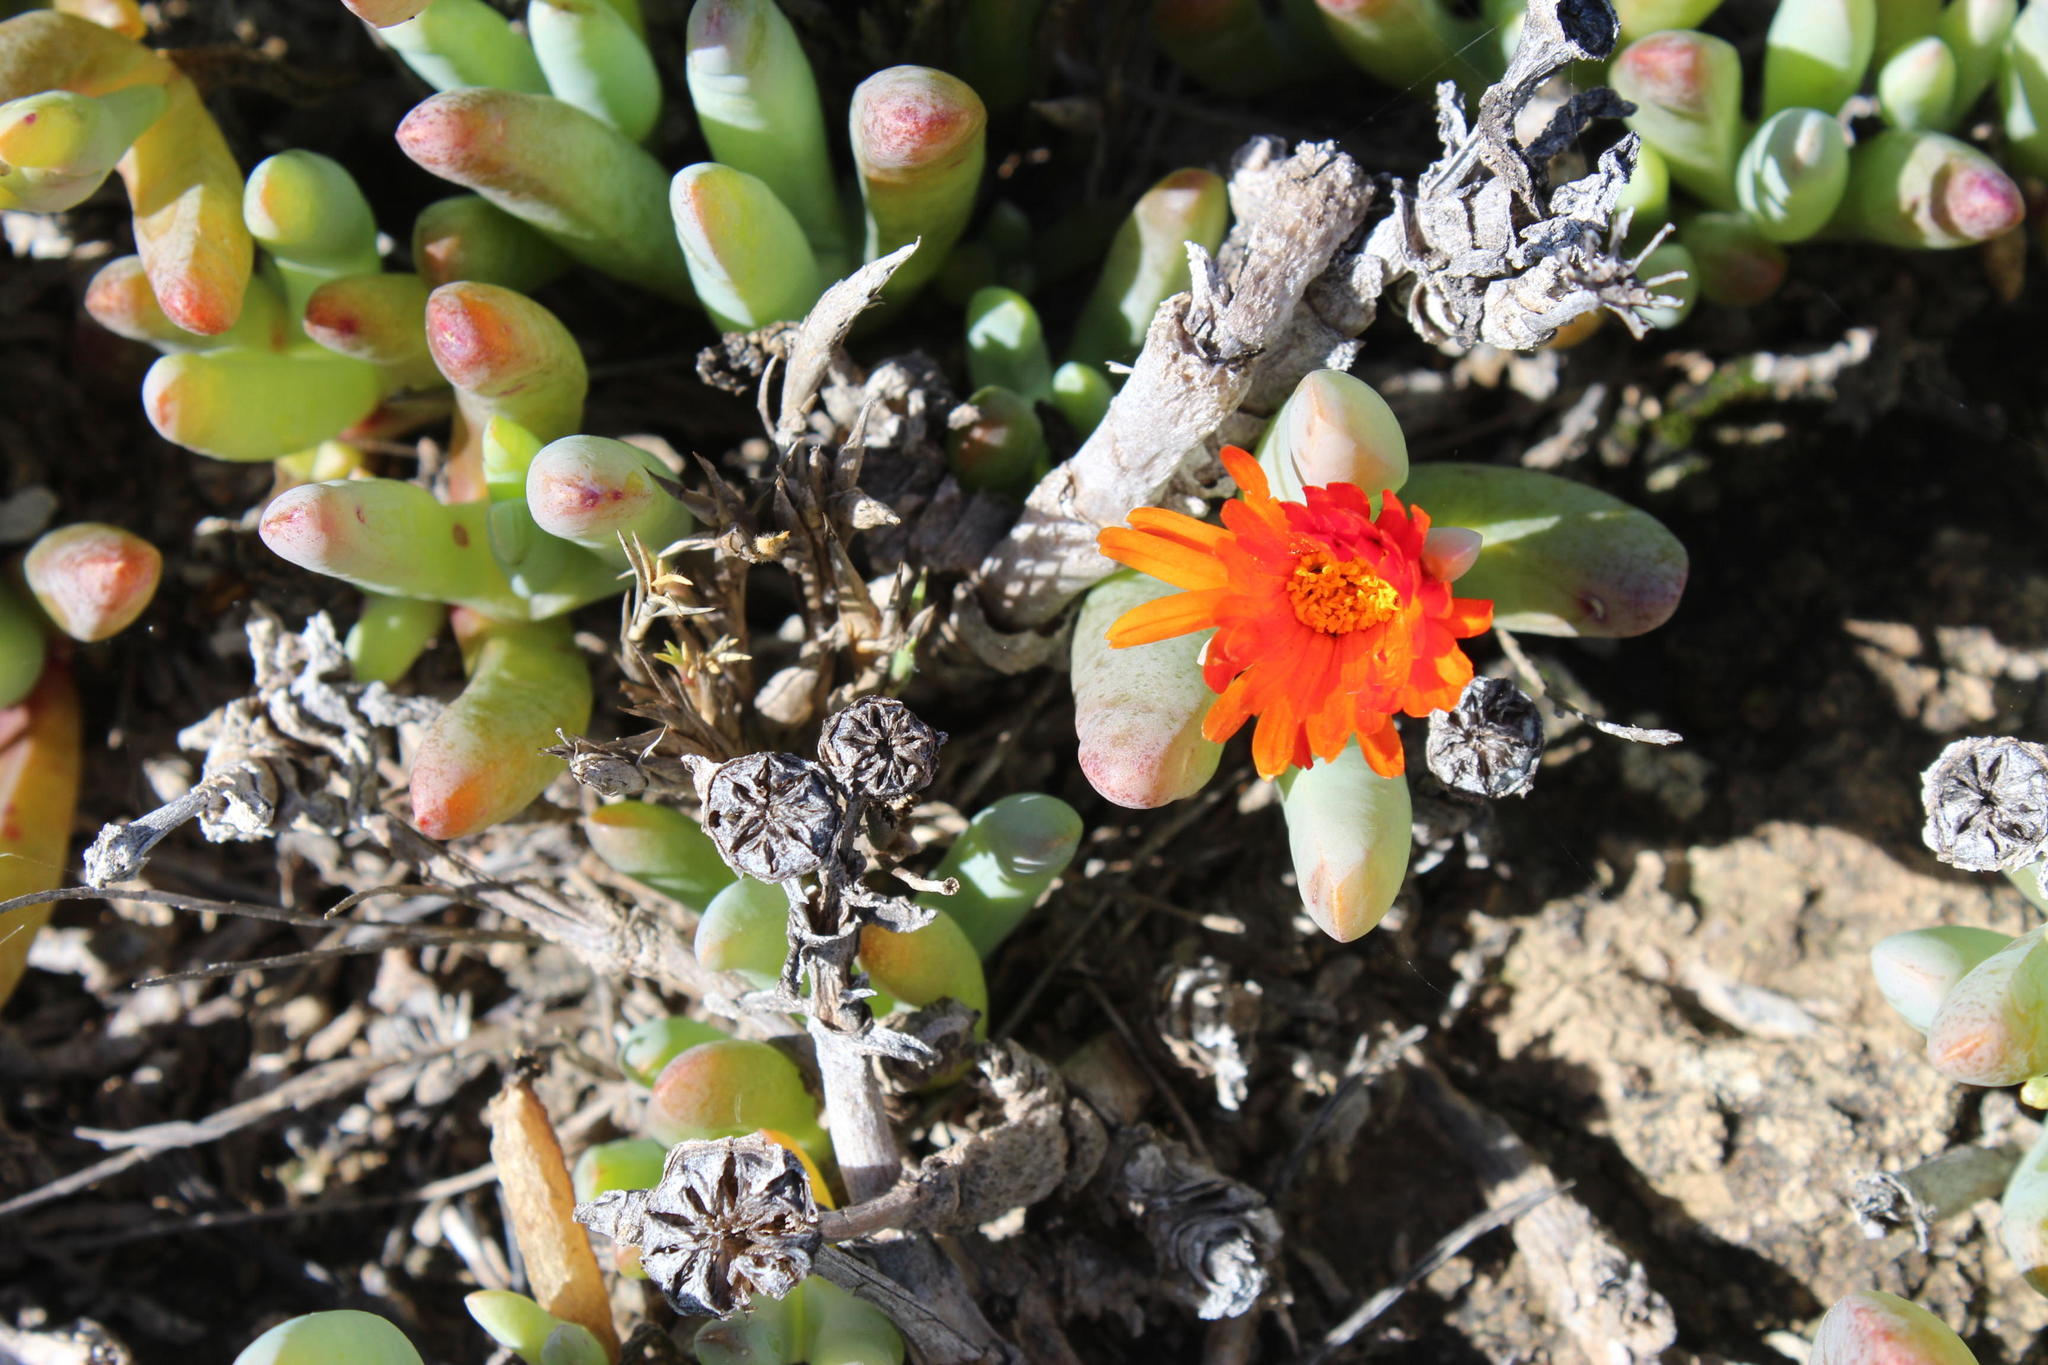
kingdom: Plantae
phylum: Tracheophyta
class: Magnoliopsida
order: Caryophyllales
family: Aizoaceae
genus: Malephora
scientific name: Malephora purpureocrocea
